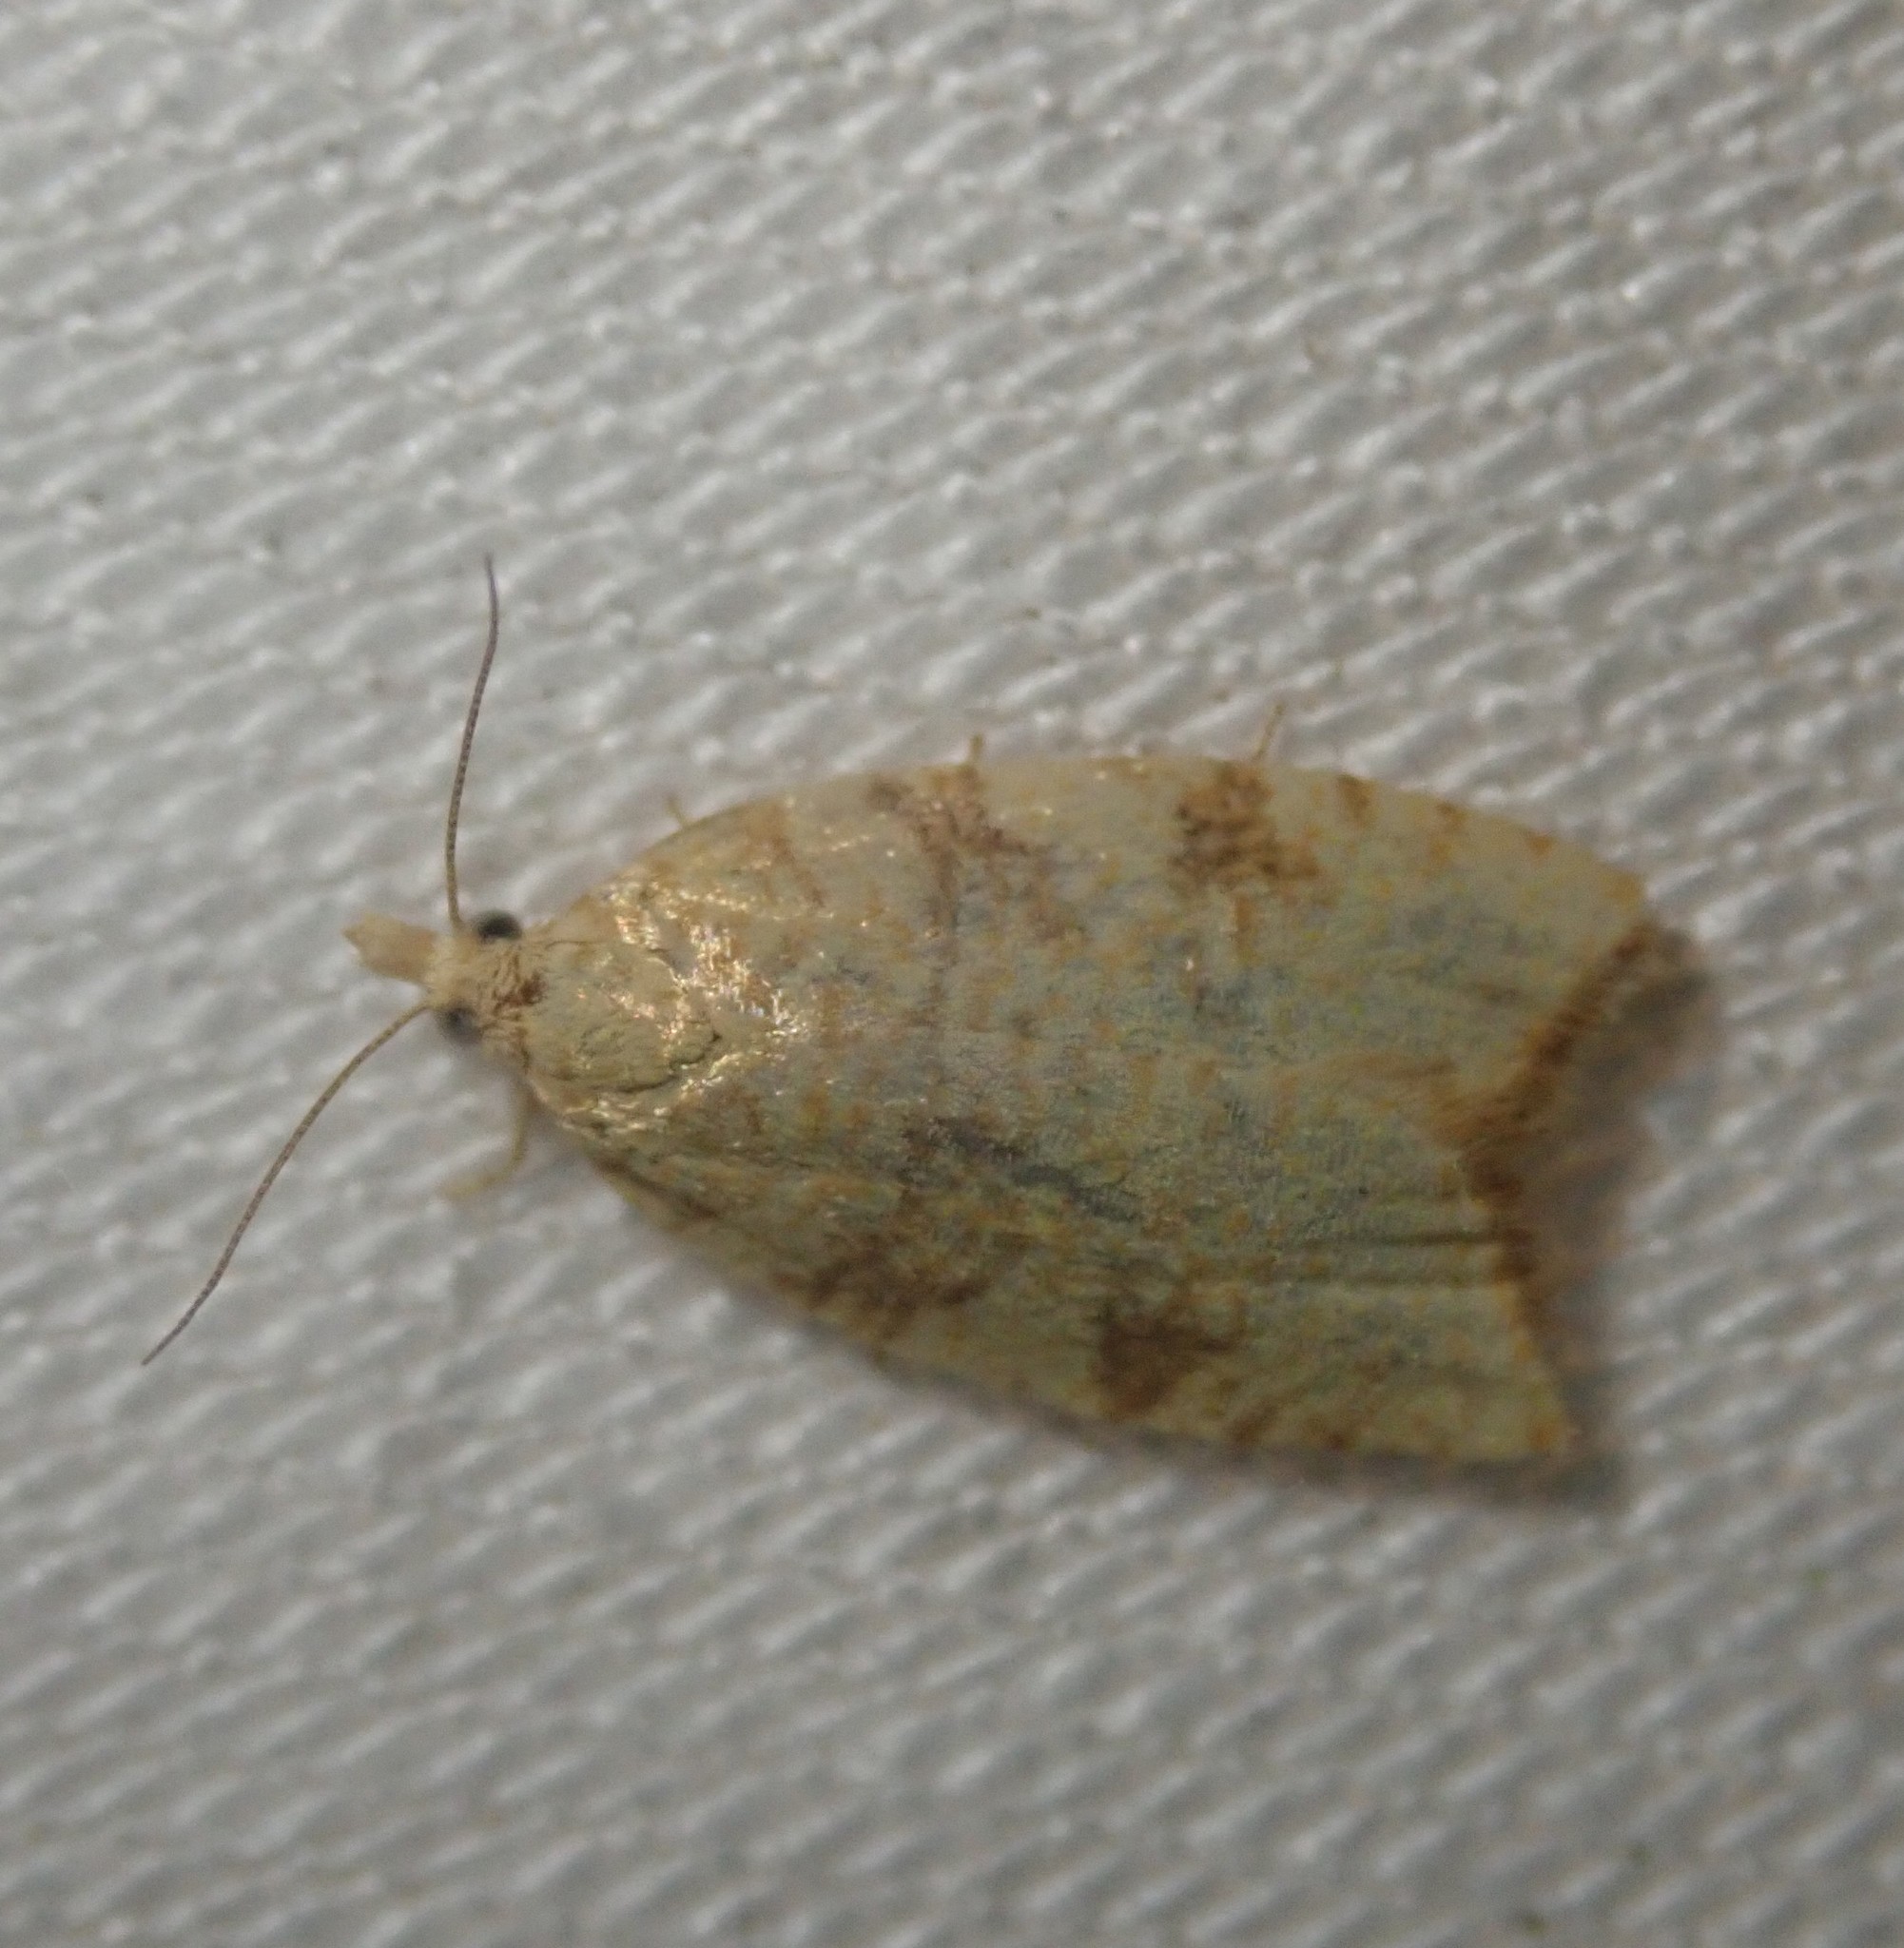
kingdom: Animalia
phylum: Arthropoda
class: Insecta
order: Lepidoptera
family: Tortricidae
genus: Aleimma
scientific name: Aleimma loeflingiana
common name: Yellow oak button
